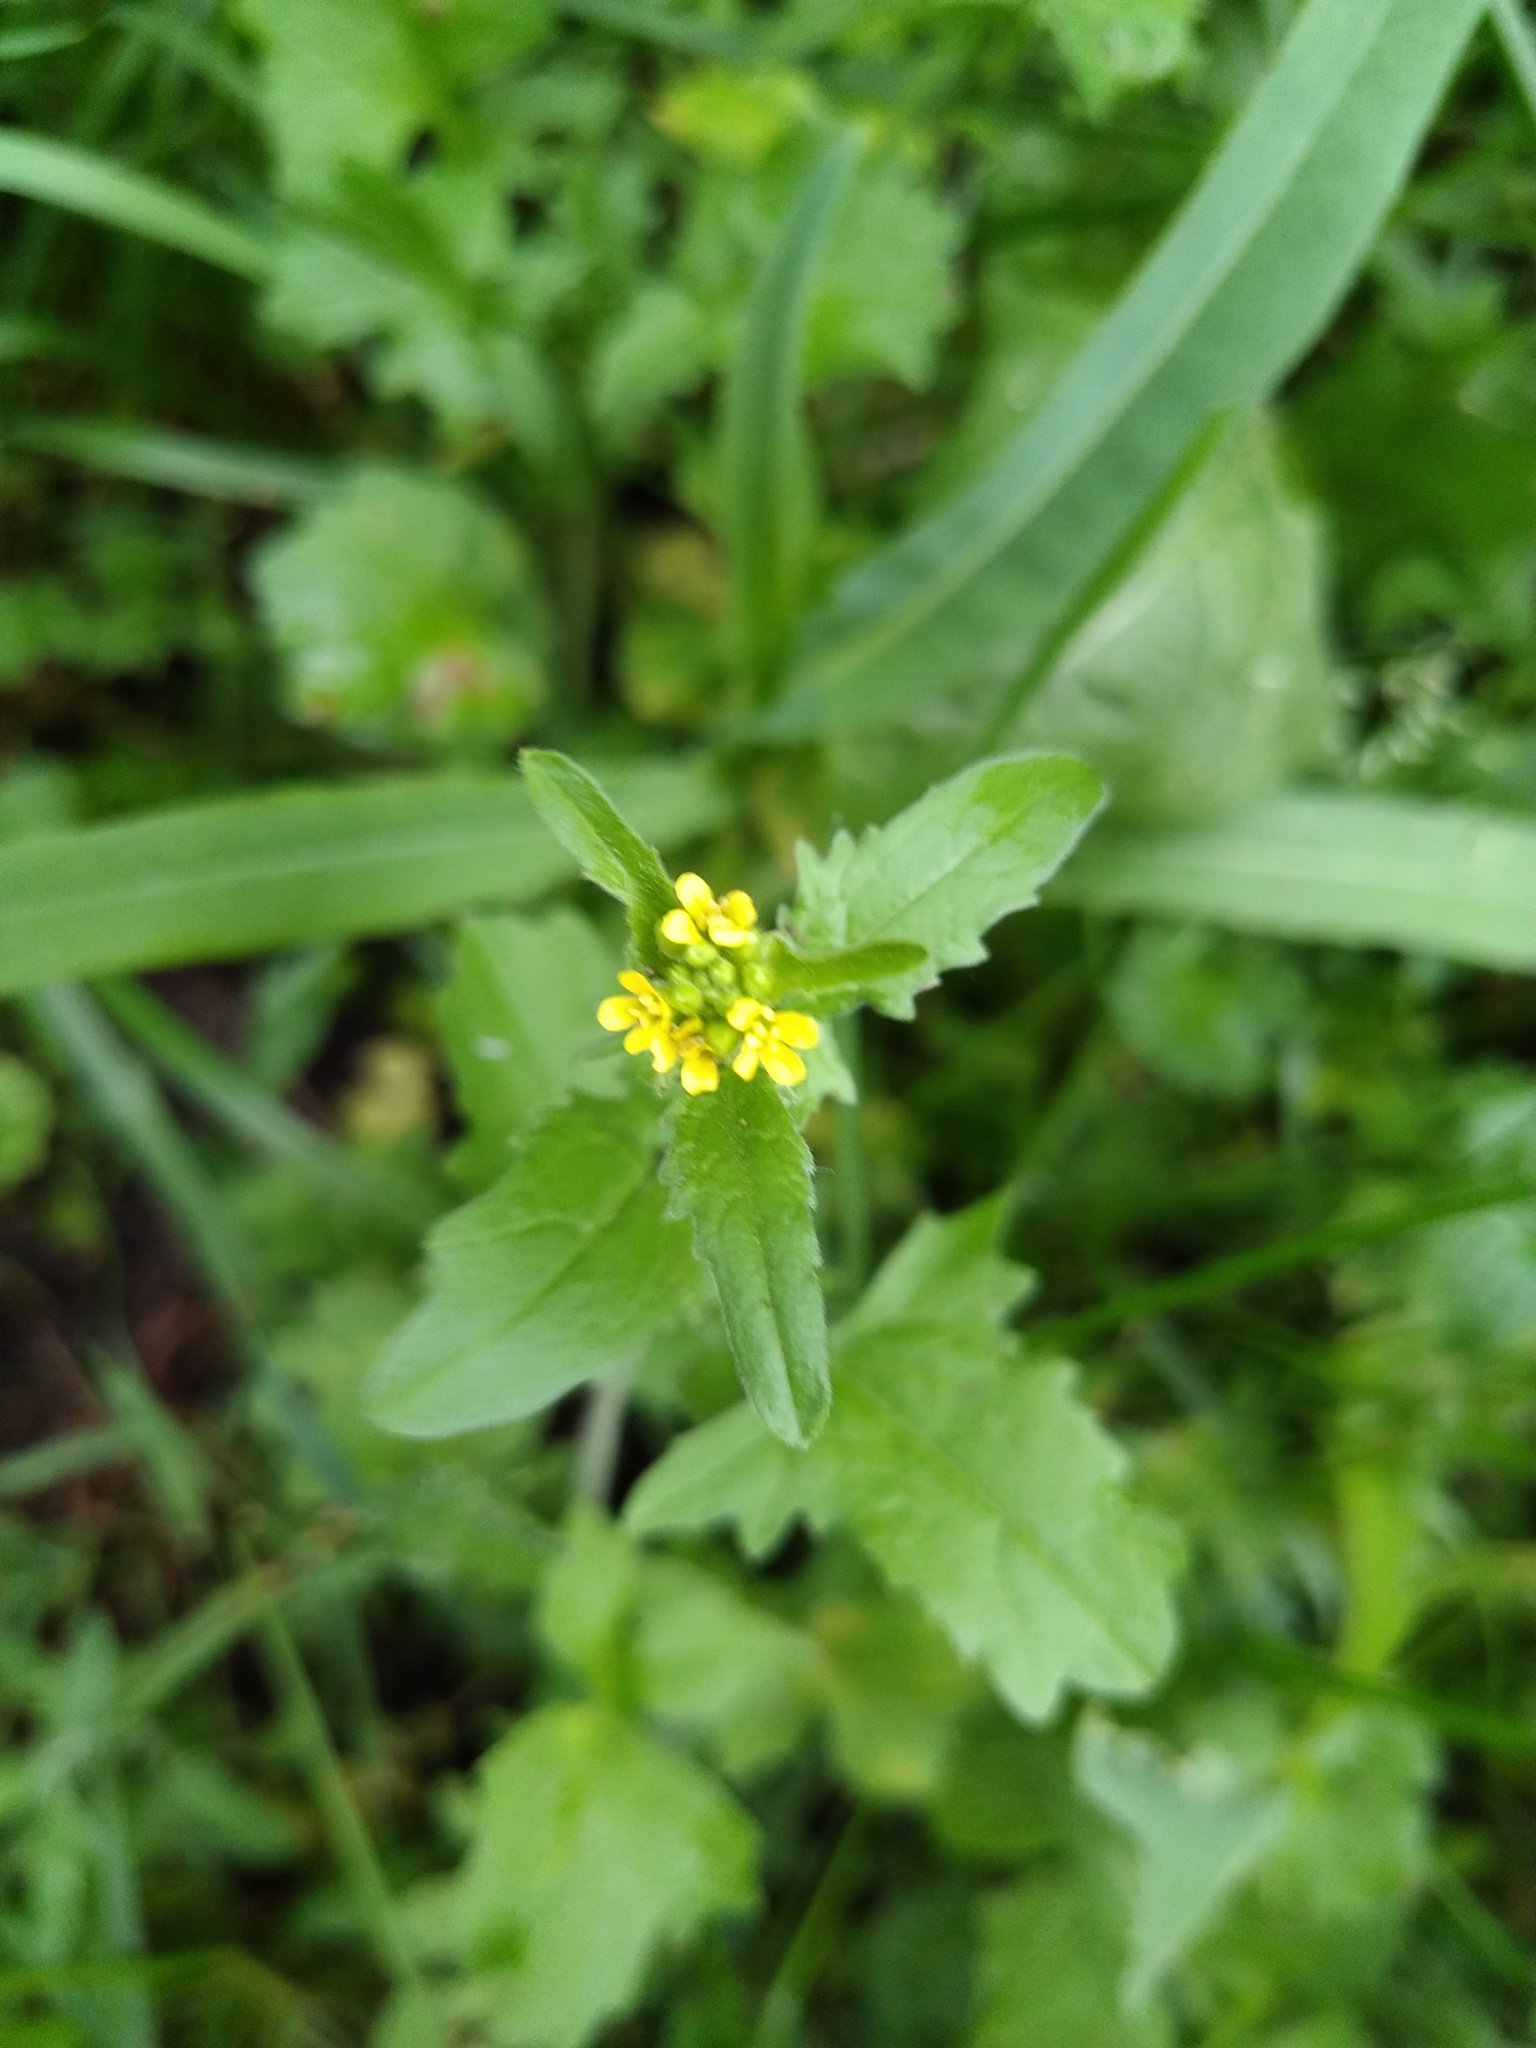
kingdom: Plantae
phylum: Tracheophyta
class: Magnoliopsida
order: Brassicales
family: Brassicaceae
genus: Sisymbrium
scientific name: Sisymbrium officinale
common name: Hedge mustard
